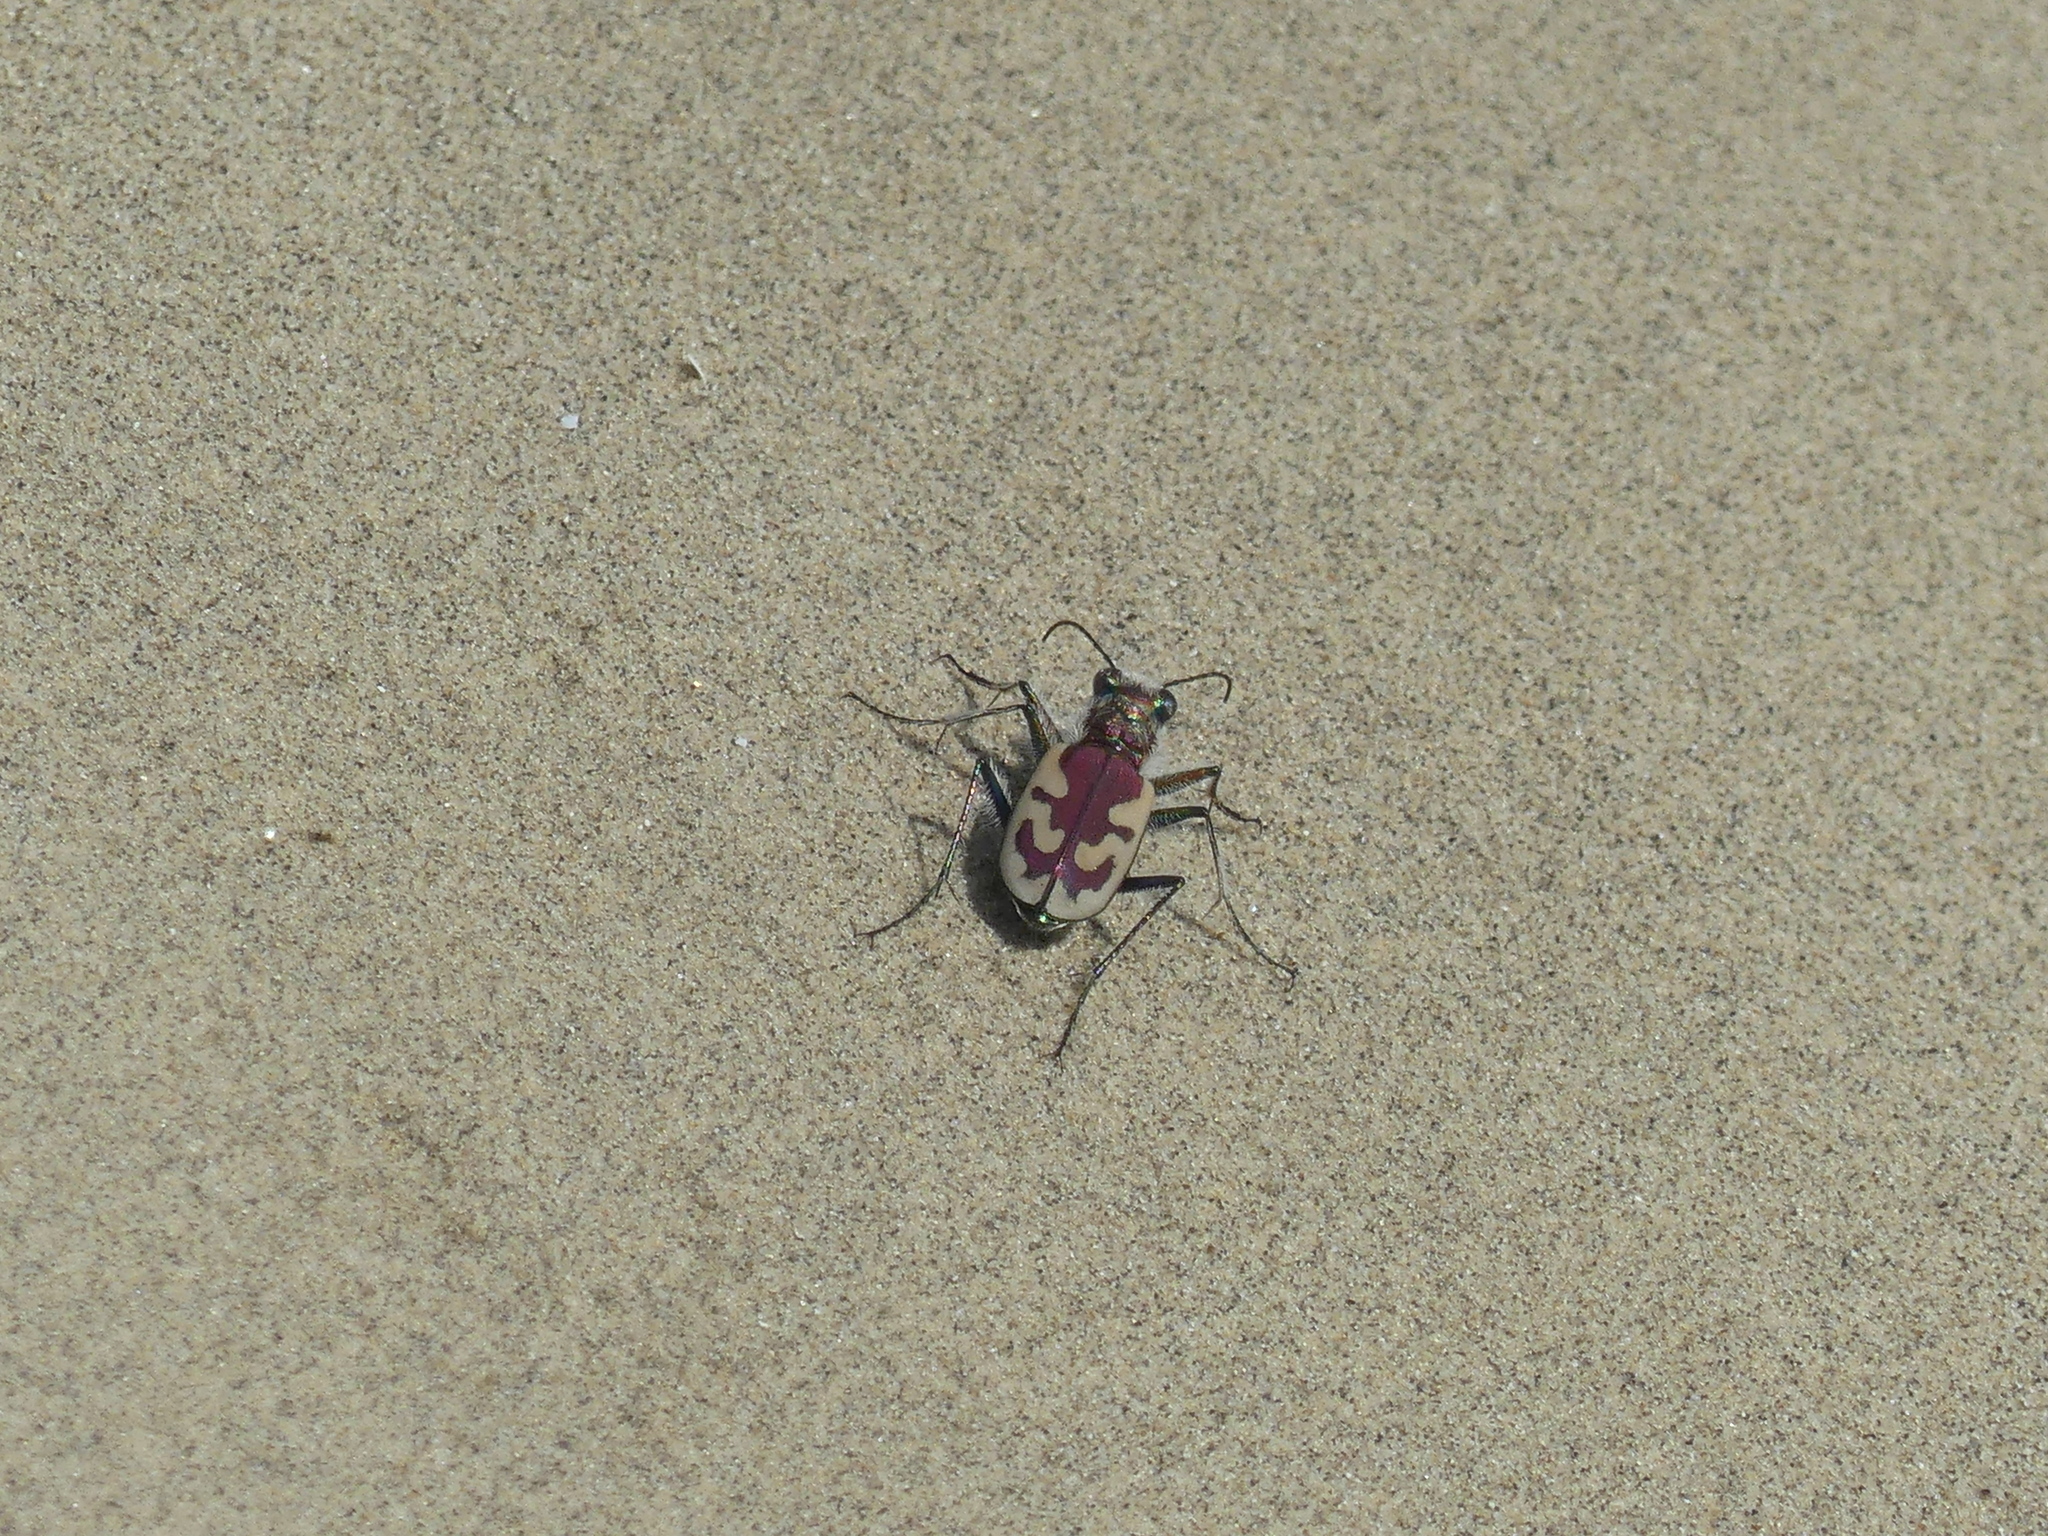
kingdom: Animalia
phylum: Arthropoda
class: Insecta
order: Coleoptera
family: Carabidae
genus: Cicindela
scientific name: Cicindela lengi
